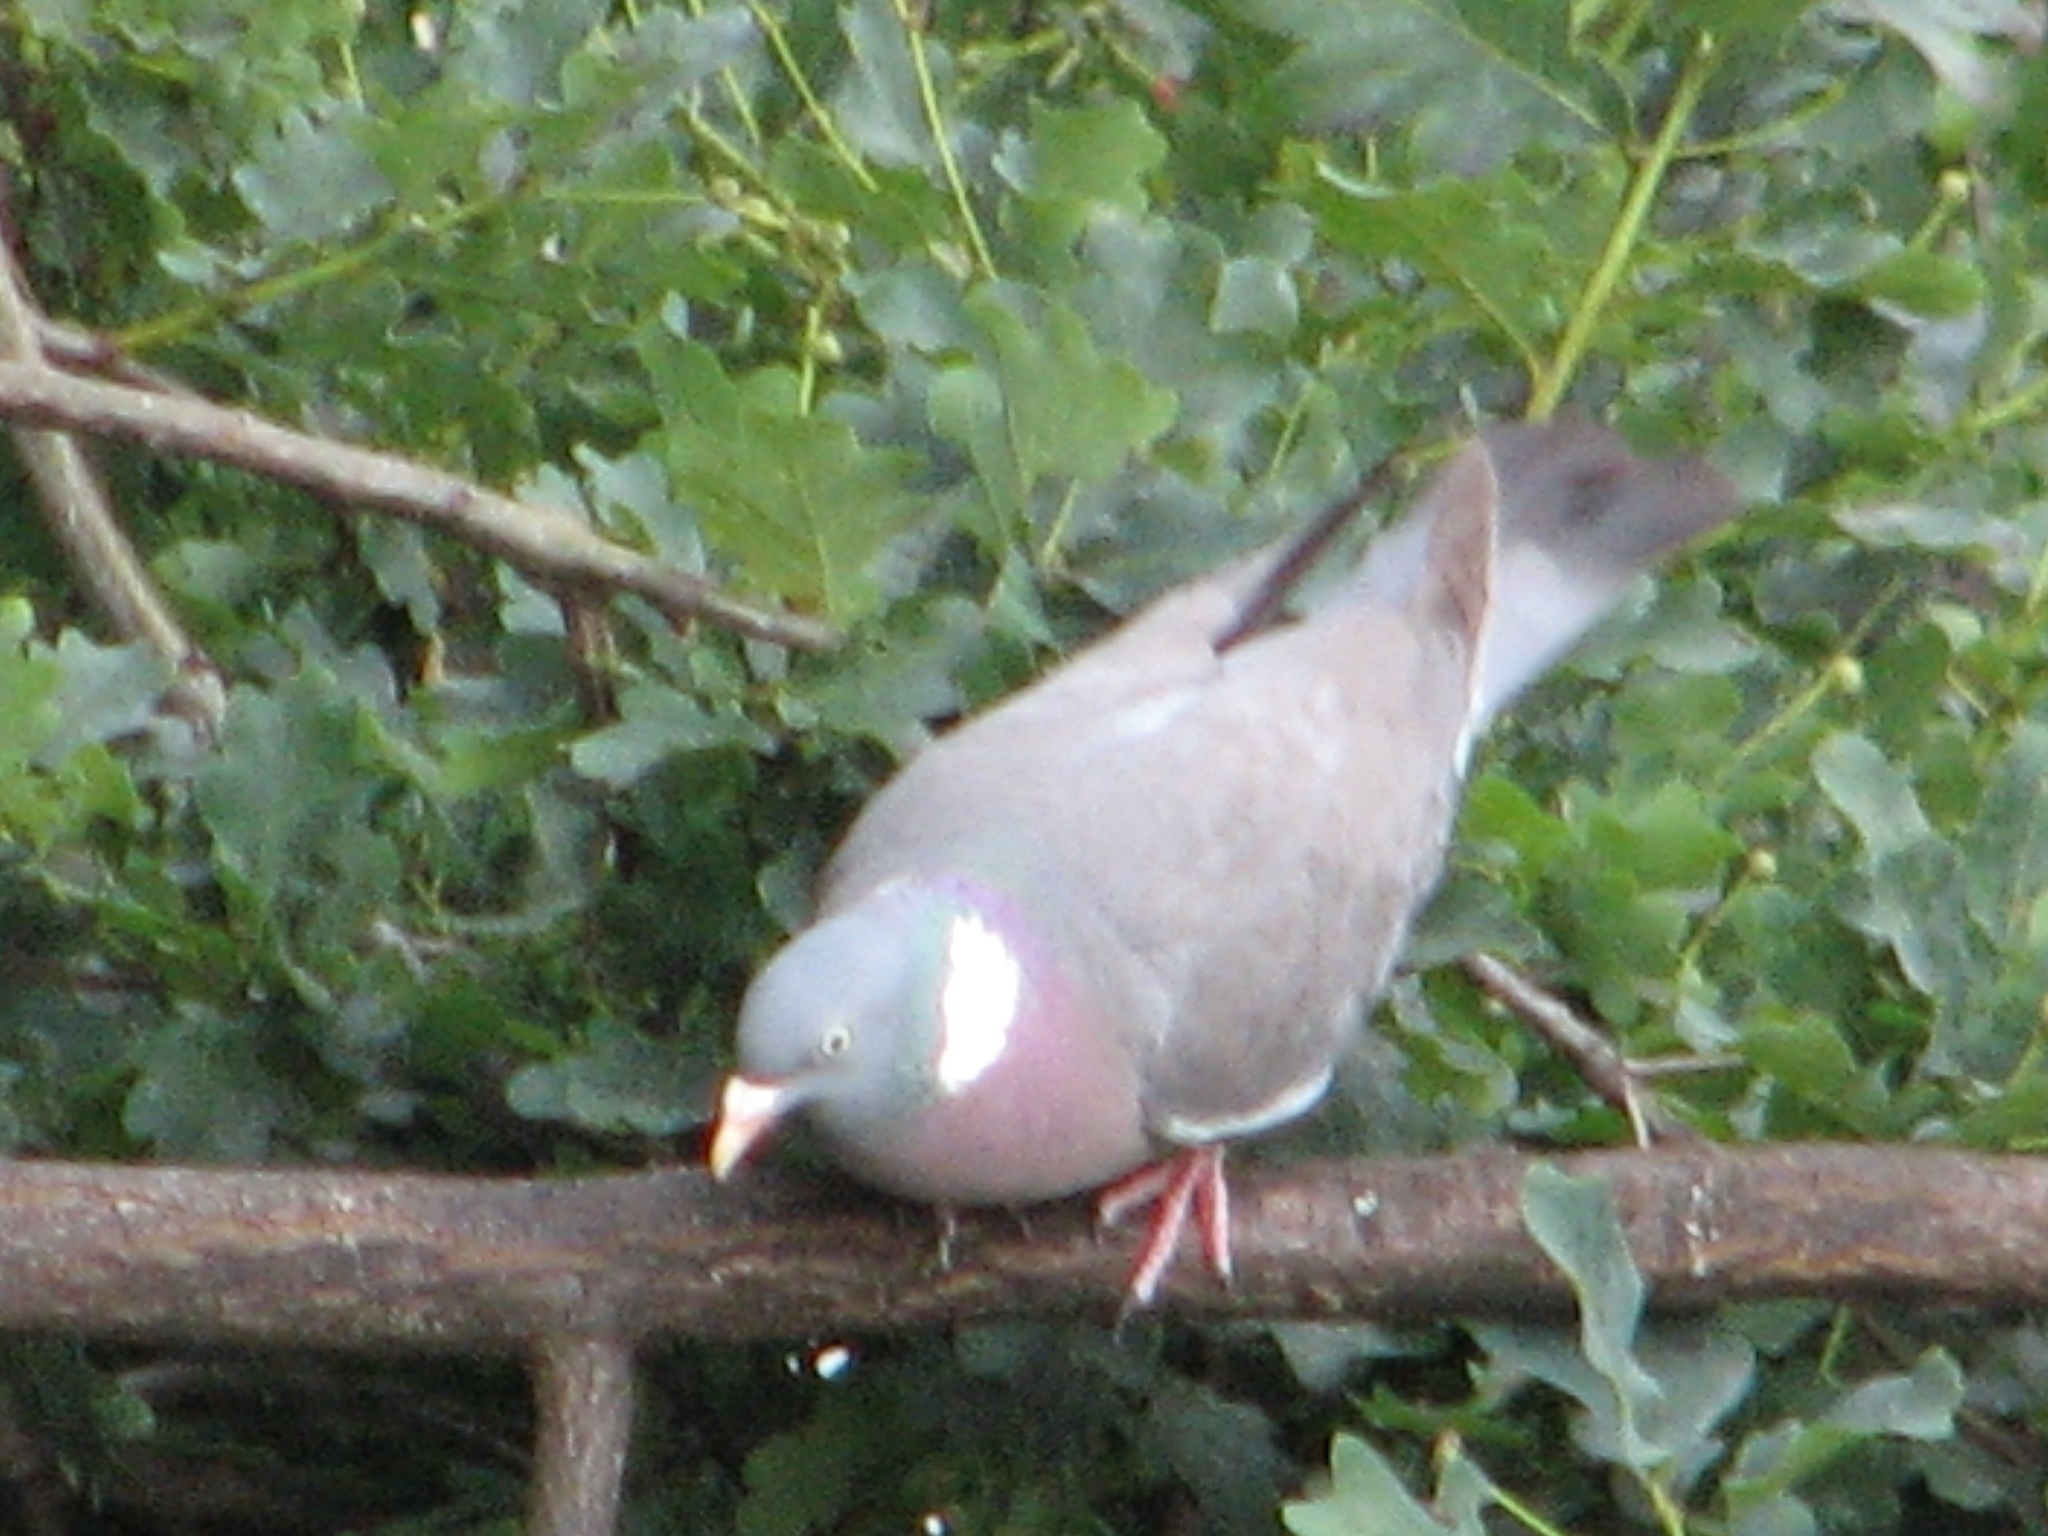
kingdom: Animalia
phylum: Chordata
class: Aves
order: Columbiformes
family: Columbidae
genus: Columba
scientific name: Columba palumbus
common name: Common wood pigeon
